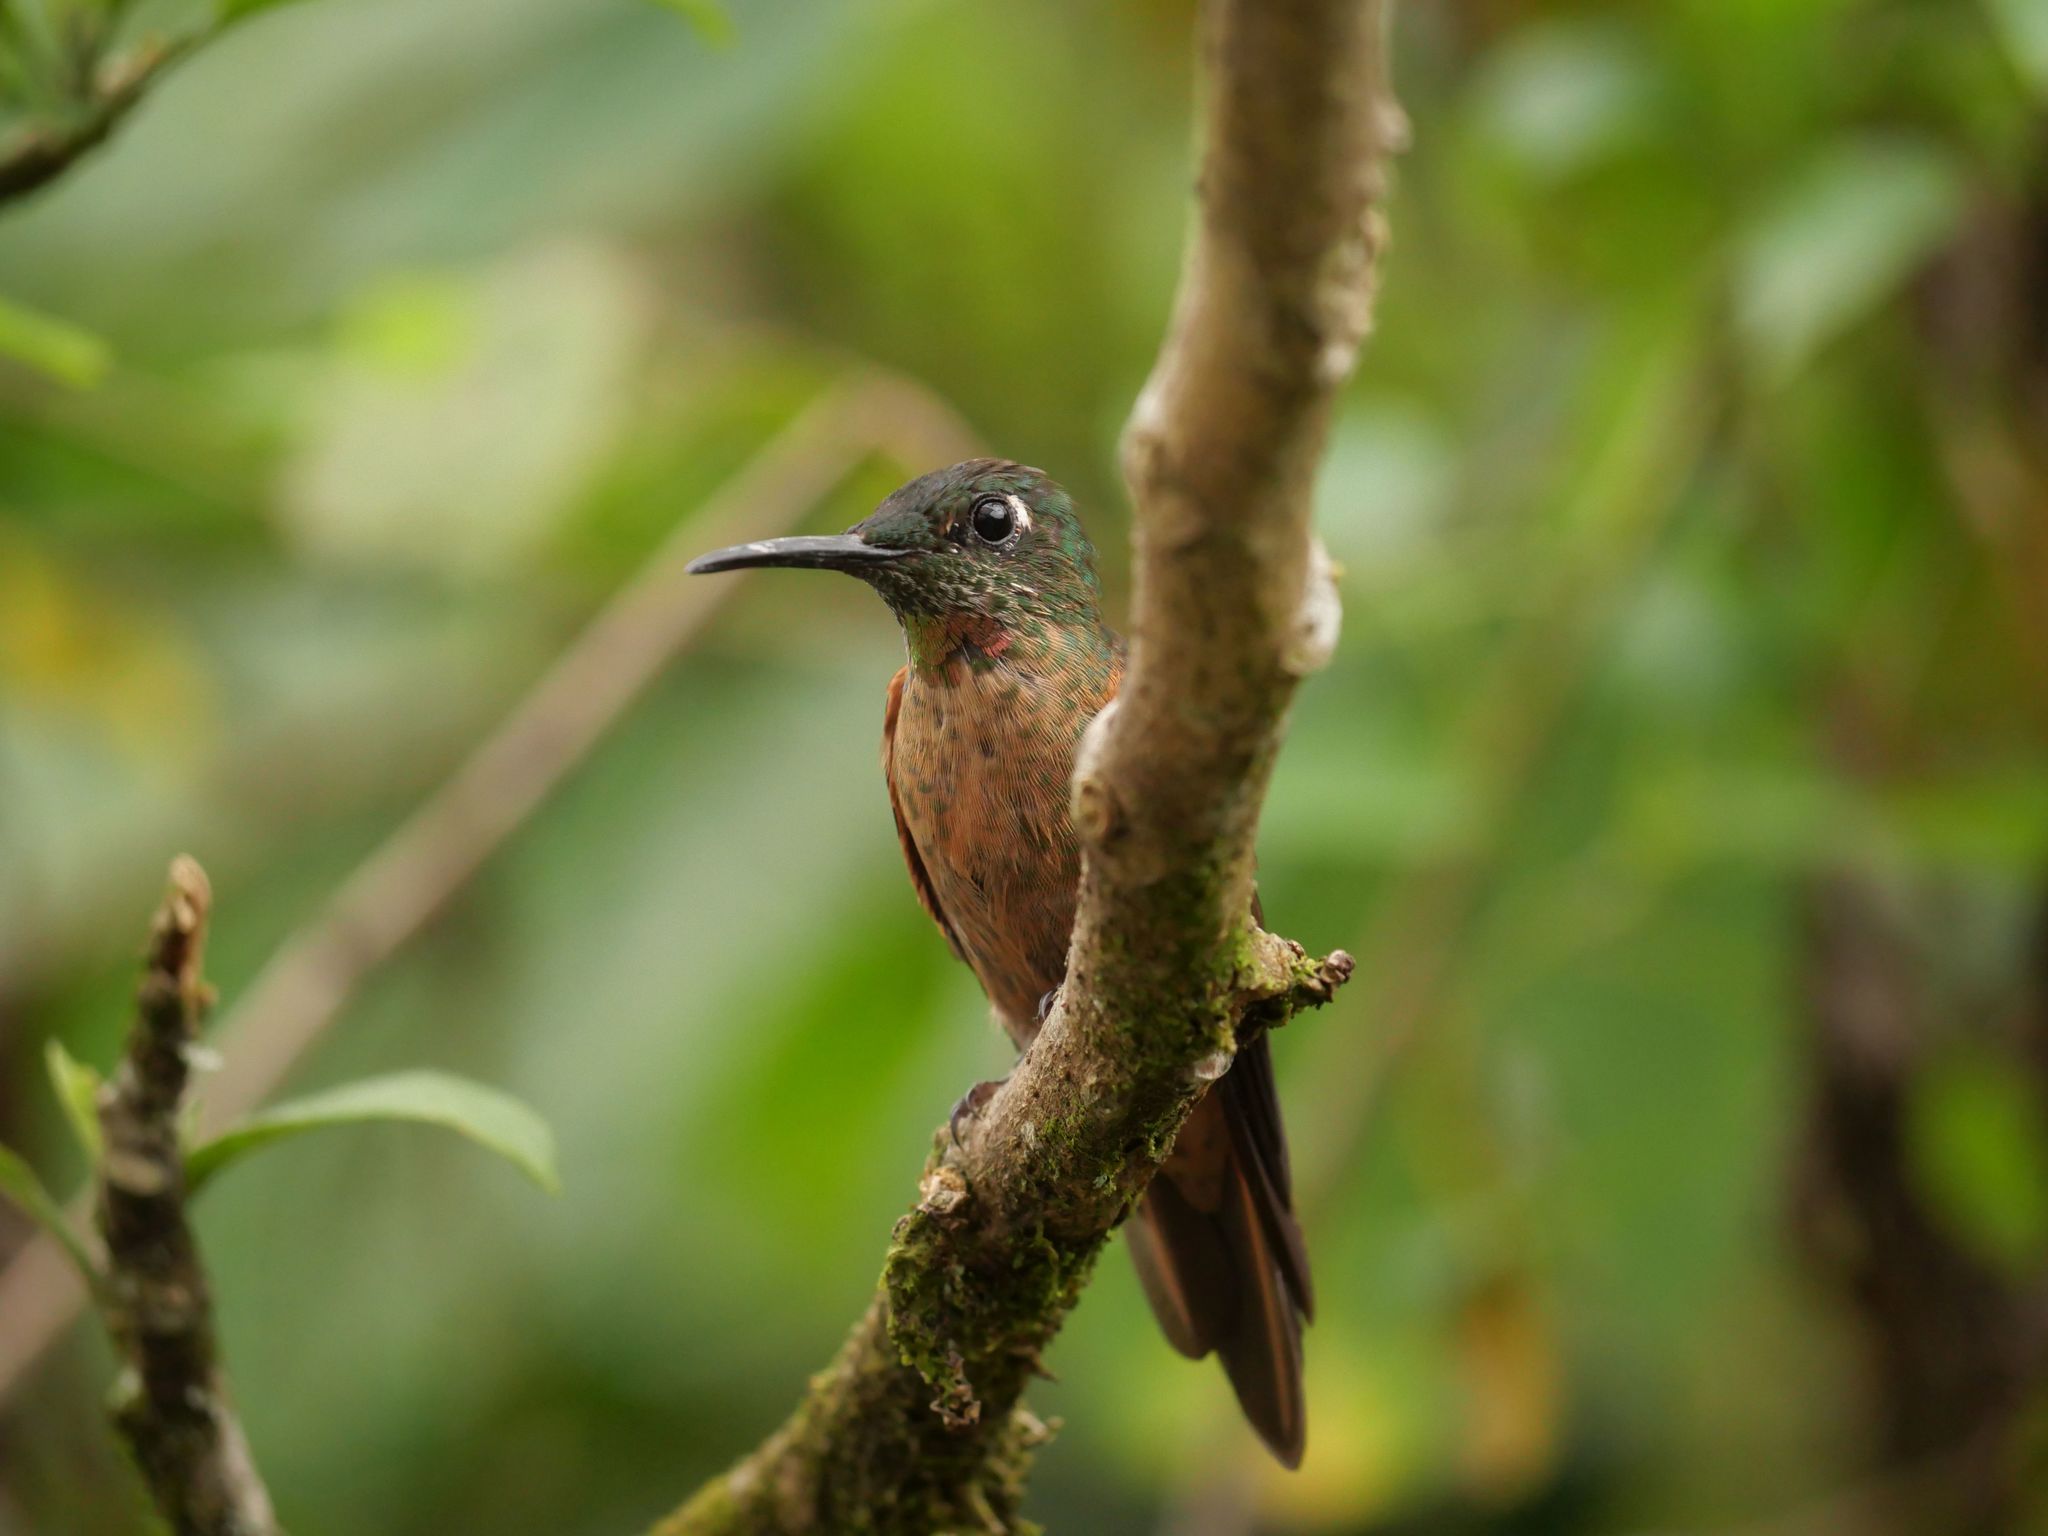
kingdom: Animalia
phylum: Chordata
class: Aves
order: Apodiformes
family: Trochilidae
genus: Heliodoxa
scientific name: Heliodoxa rubinoides
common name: Fawn-breasted brilliant
